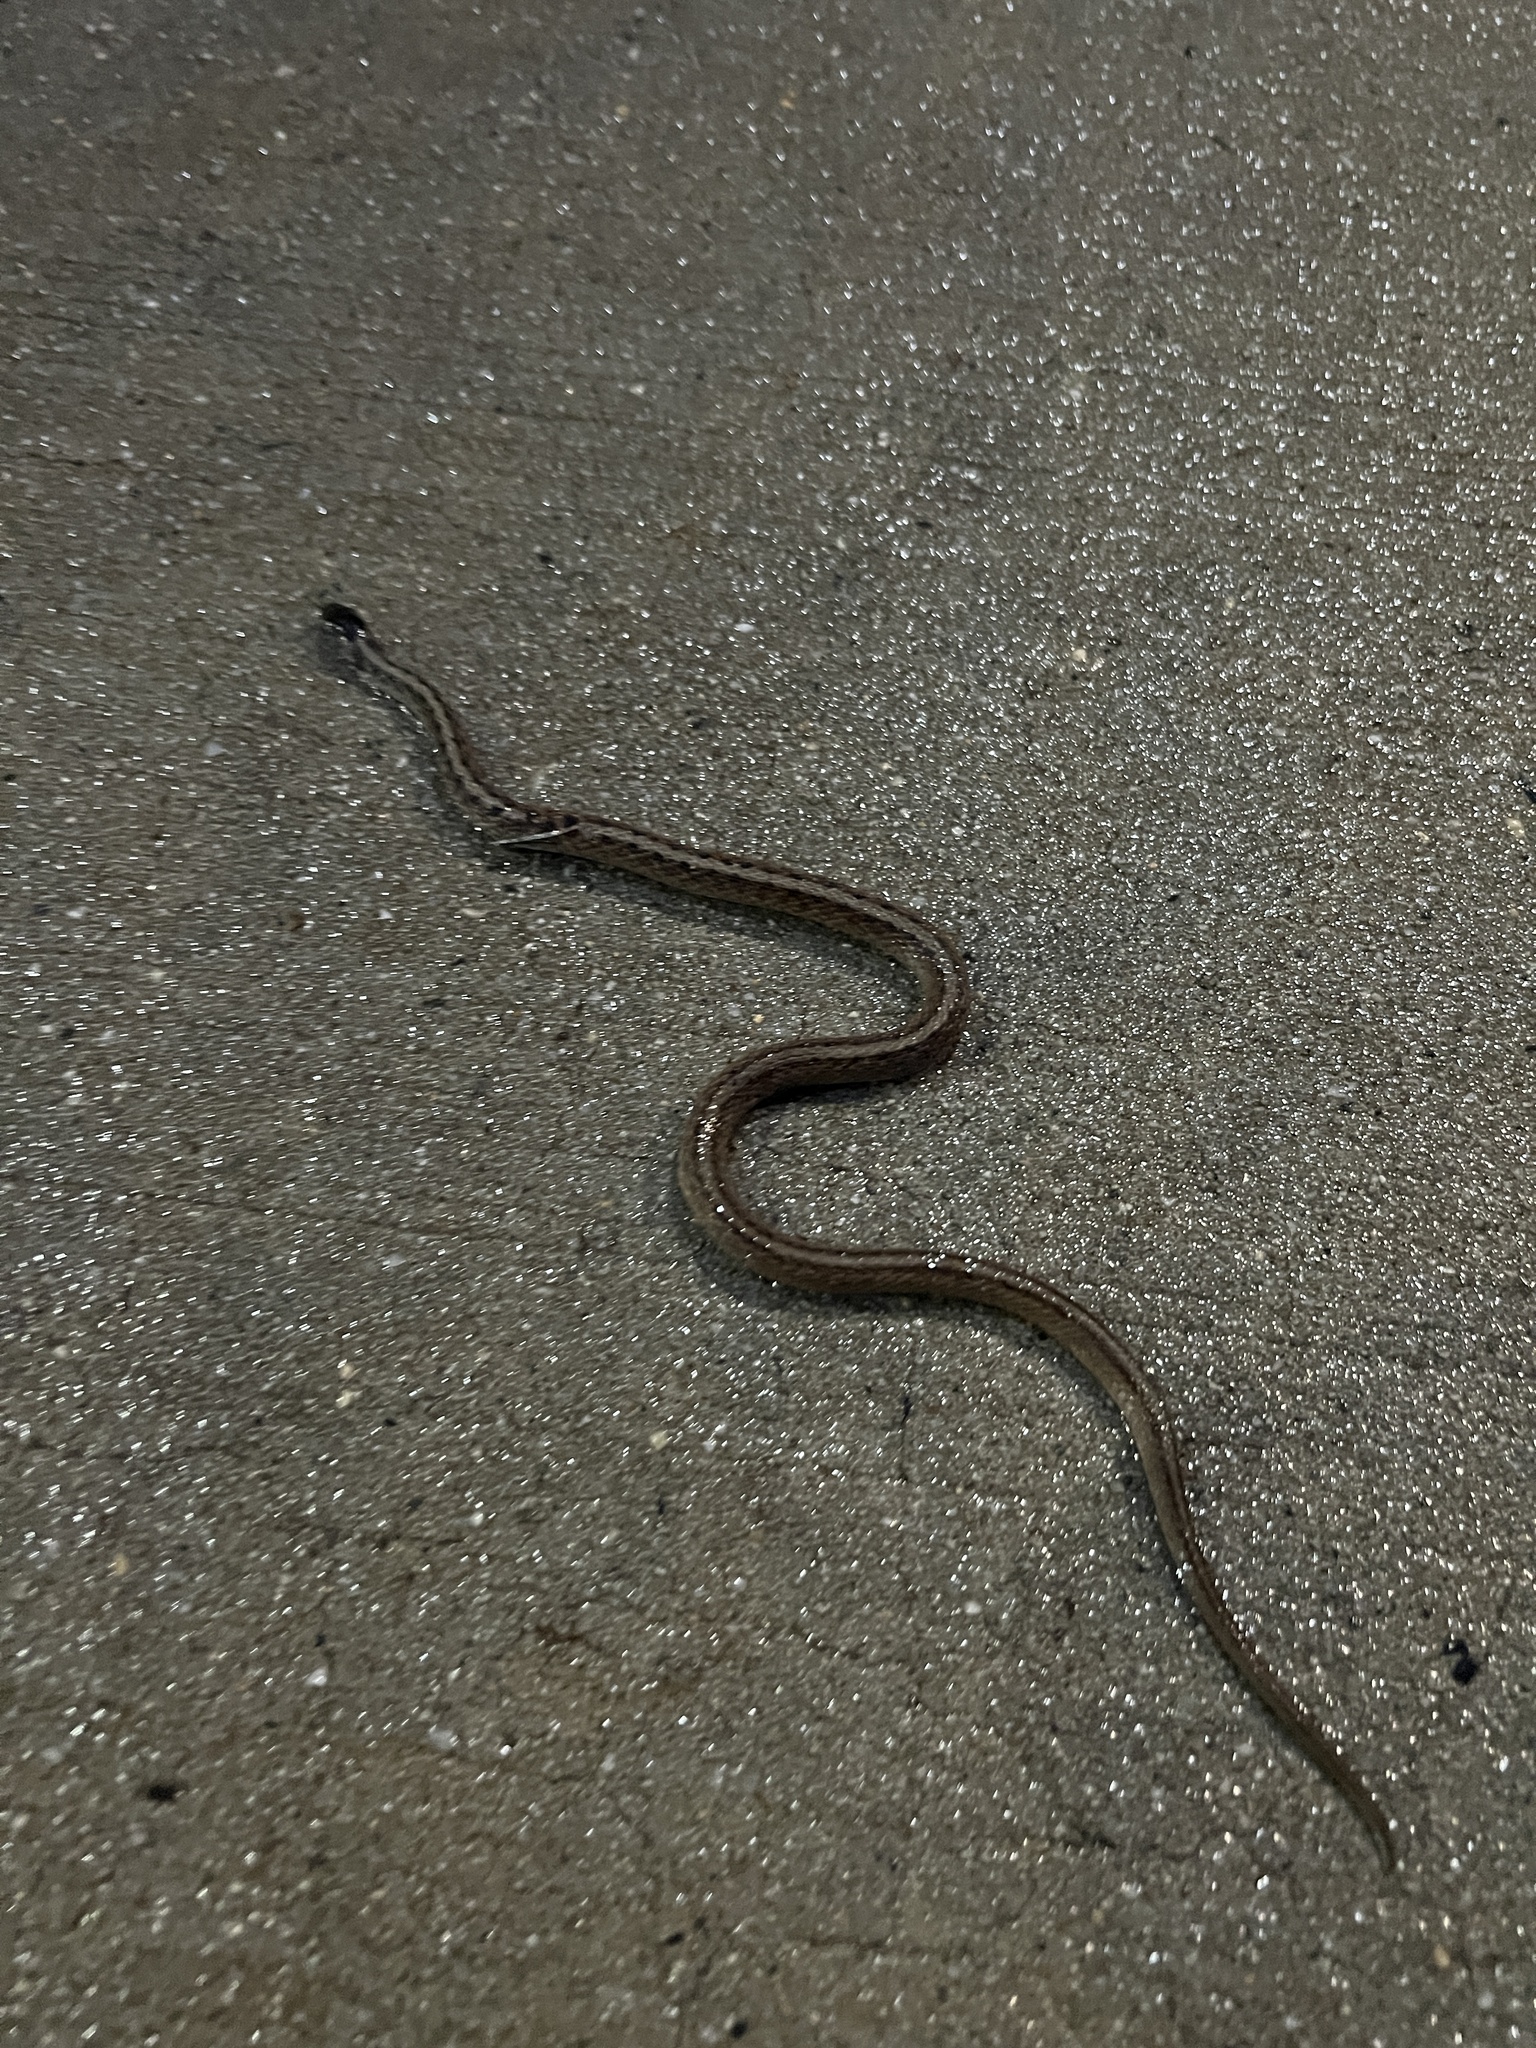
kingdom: Animalia
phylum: Chordata
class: Squamata
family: Colubridae
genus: Storeria
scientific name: Storeria dekayi
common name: (dekay’s) brown snake
